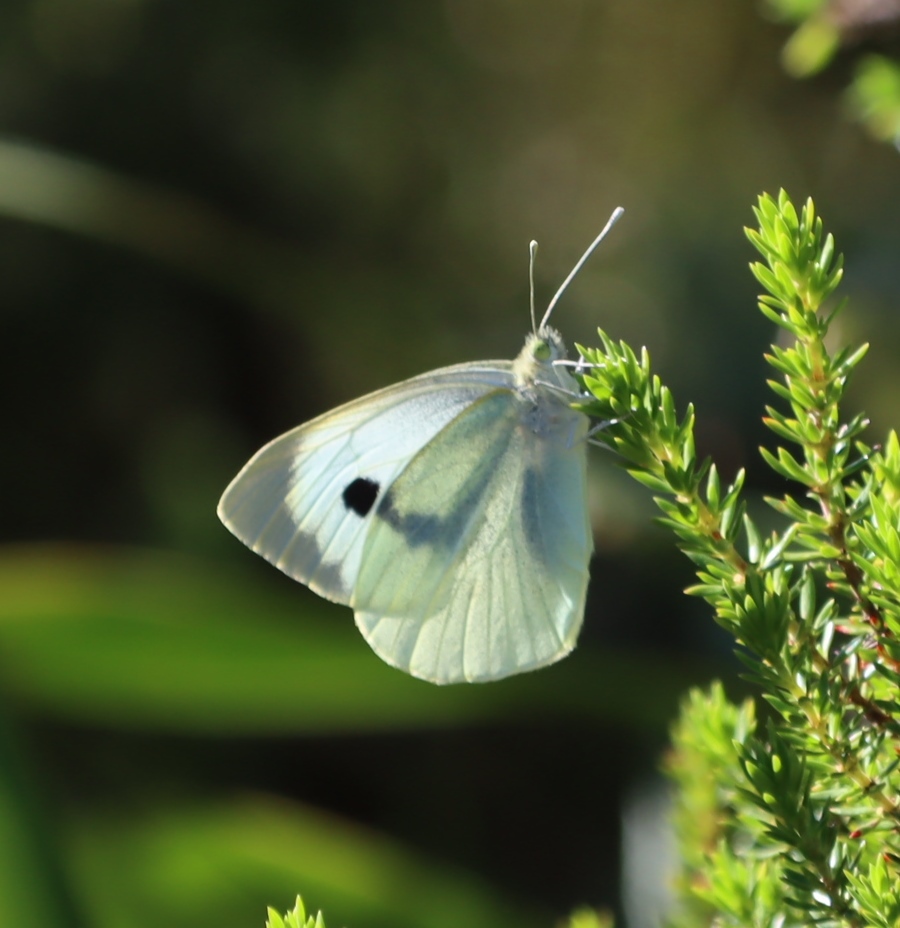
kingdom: Animalia
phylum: Arthropoda
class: Insecta
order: Lepidoptera
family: Pieridae
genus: Pieris
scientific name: Pieris brassicae
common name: Large white
